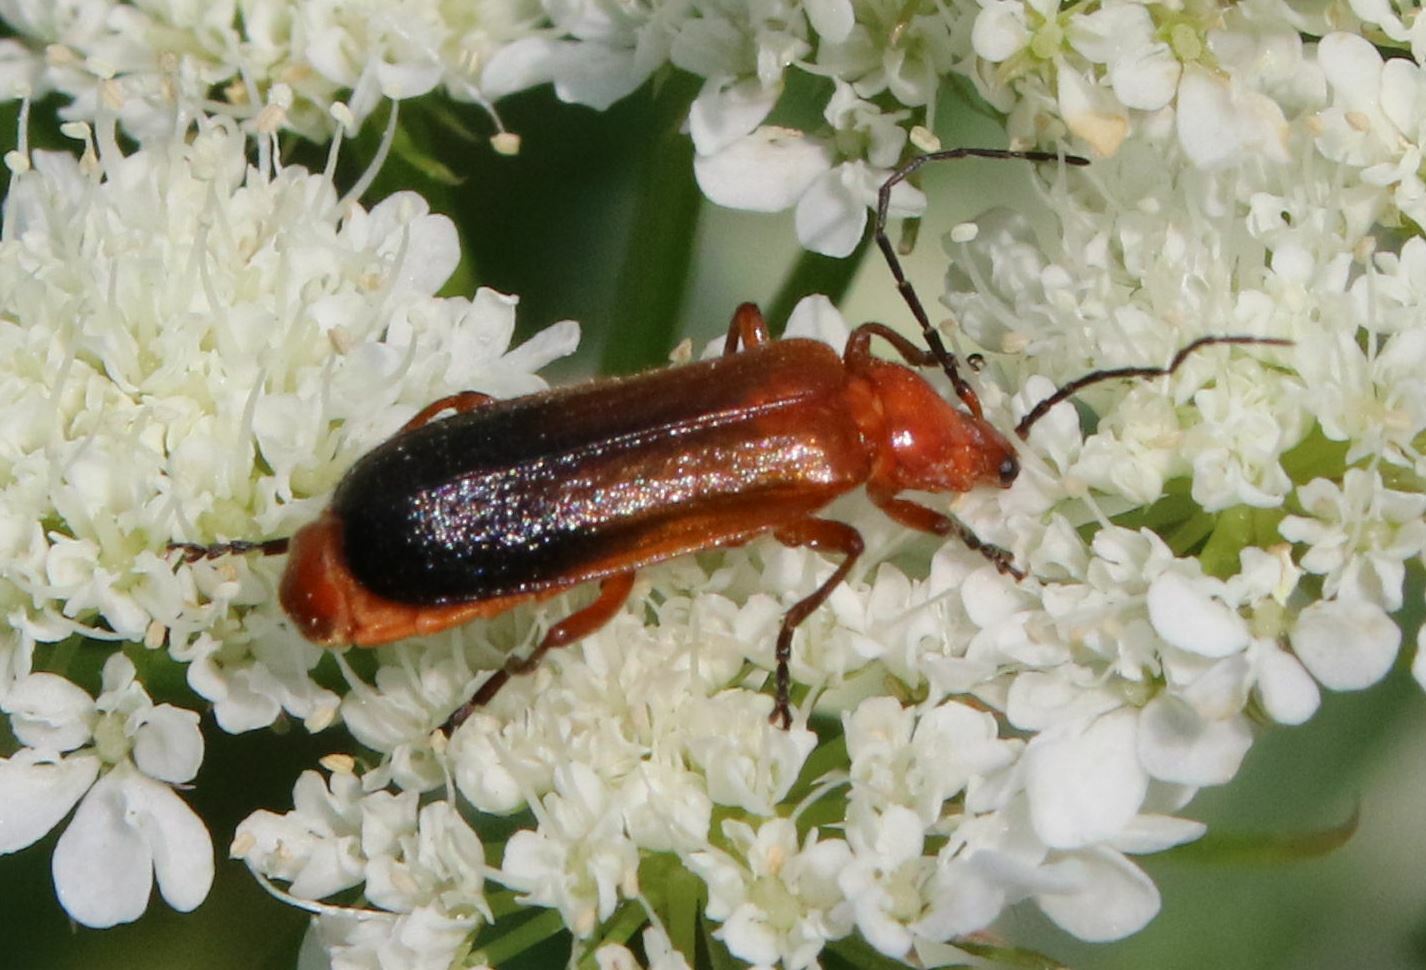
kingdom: Animalia
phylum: Arthropoda
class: Insecta
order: Coleoptera
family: Cantharidae
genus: Rhagonycha
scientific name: Rhagonycha fulva
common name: Common red soldier beetle
